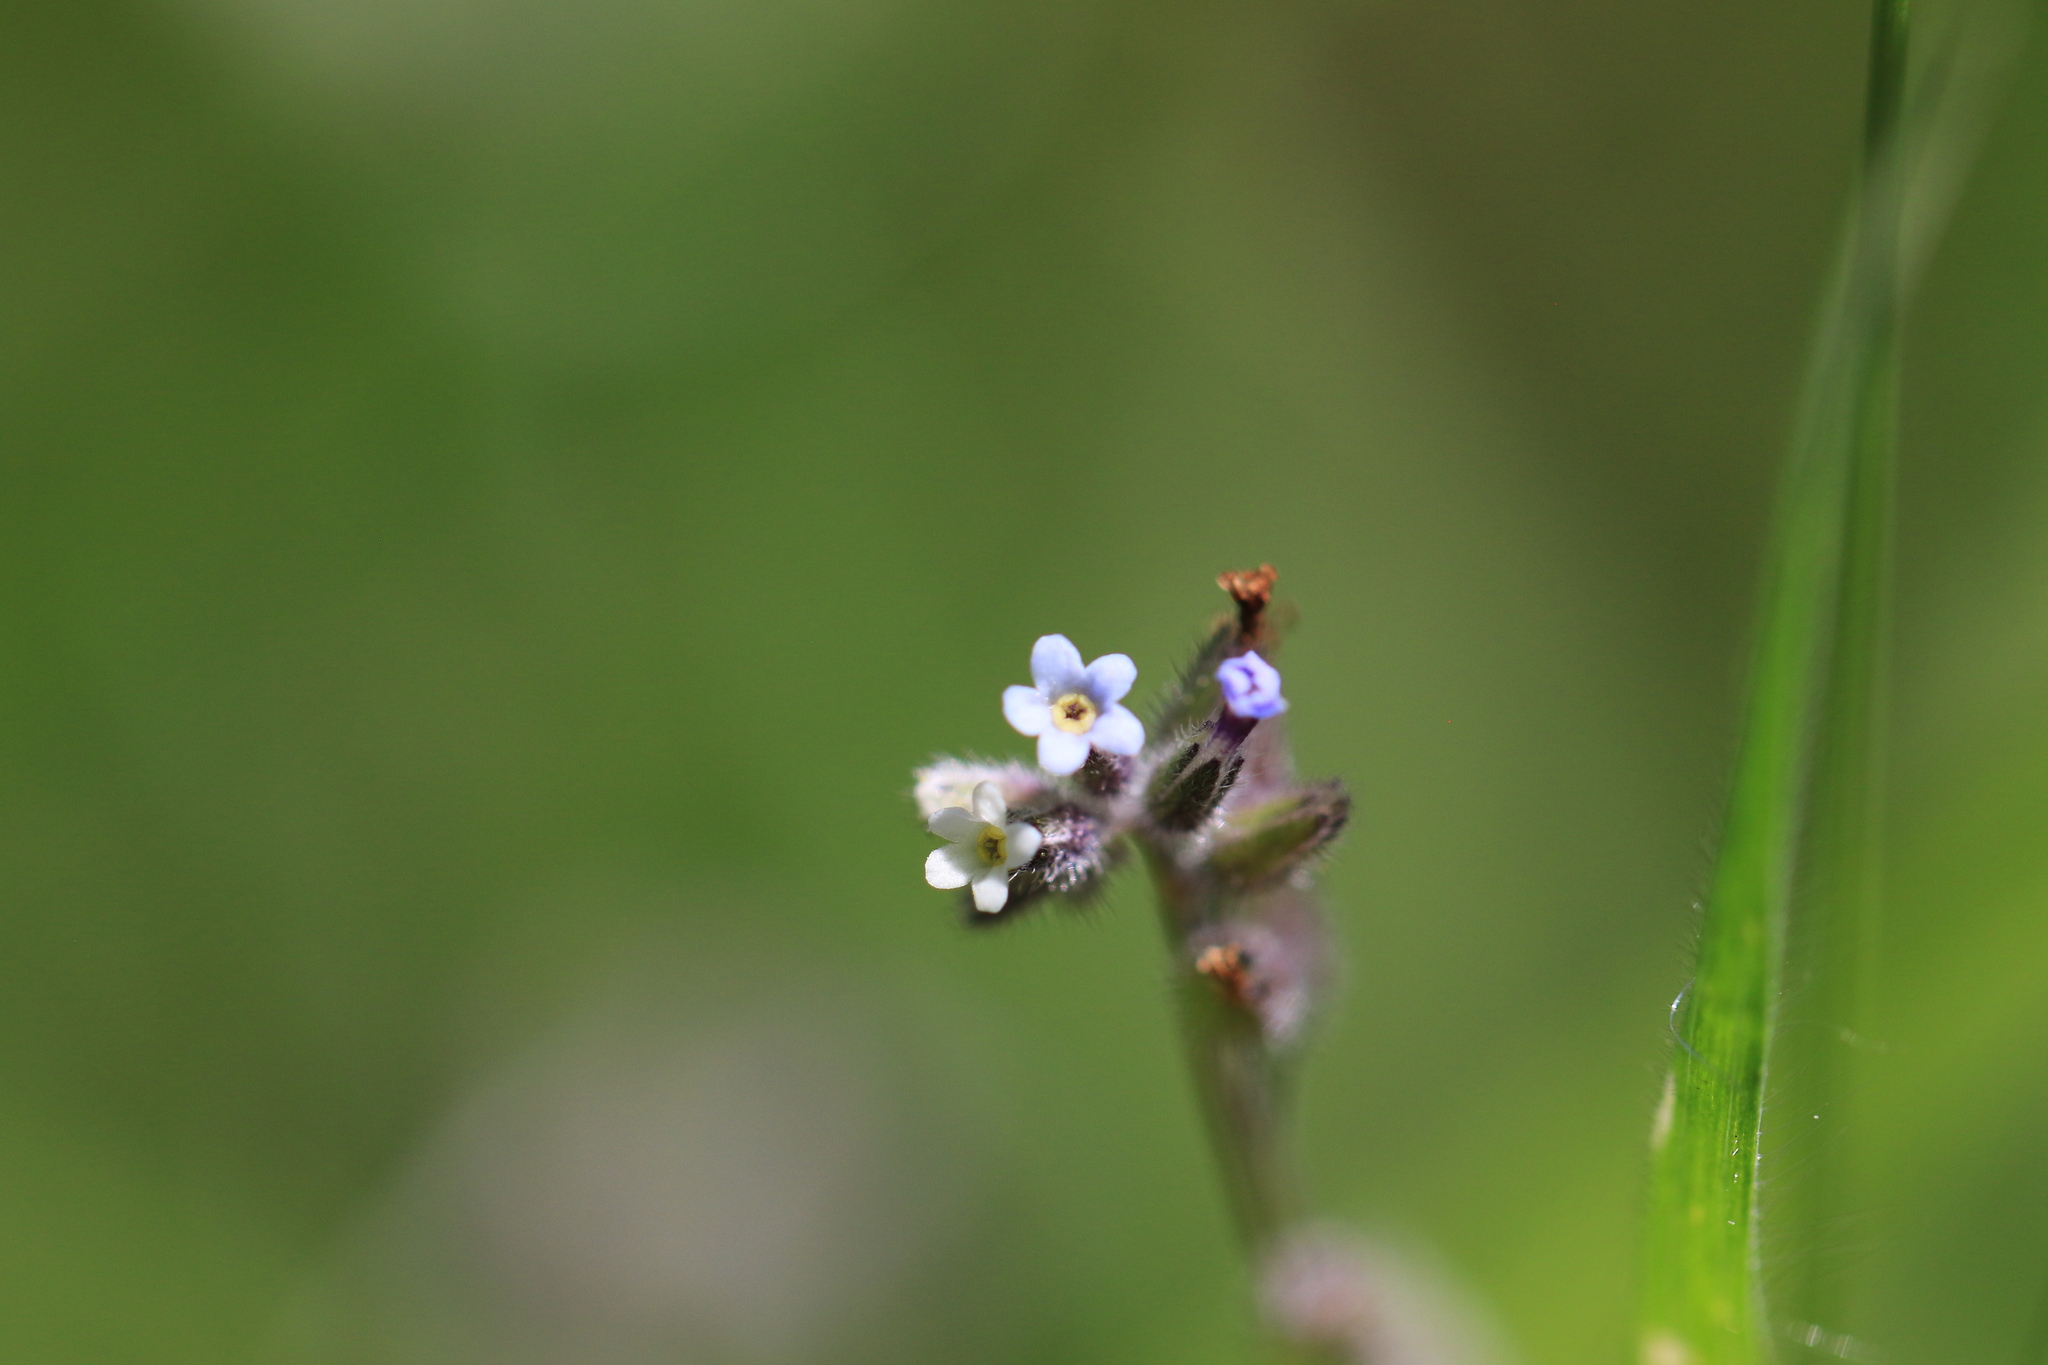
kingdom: Plantae
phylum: Tracheophyta
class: Magnoliopsida
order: Boraginales
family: Boraginaceae
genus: Myosotis
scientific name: Myosotis discolor
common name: Changing forget-me-not
